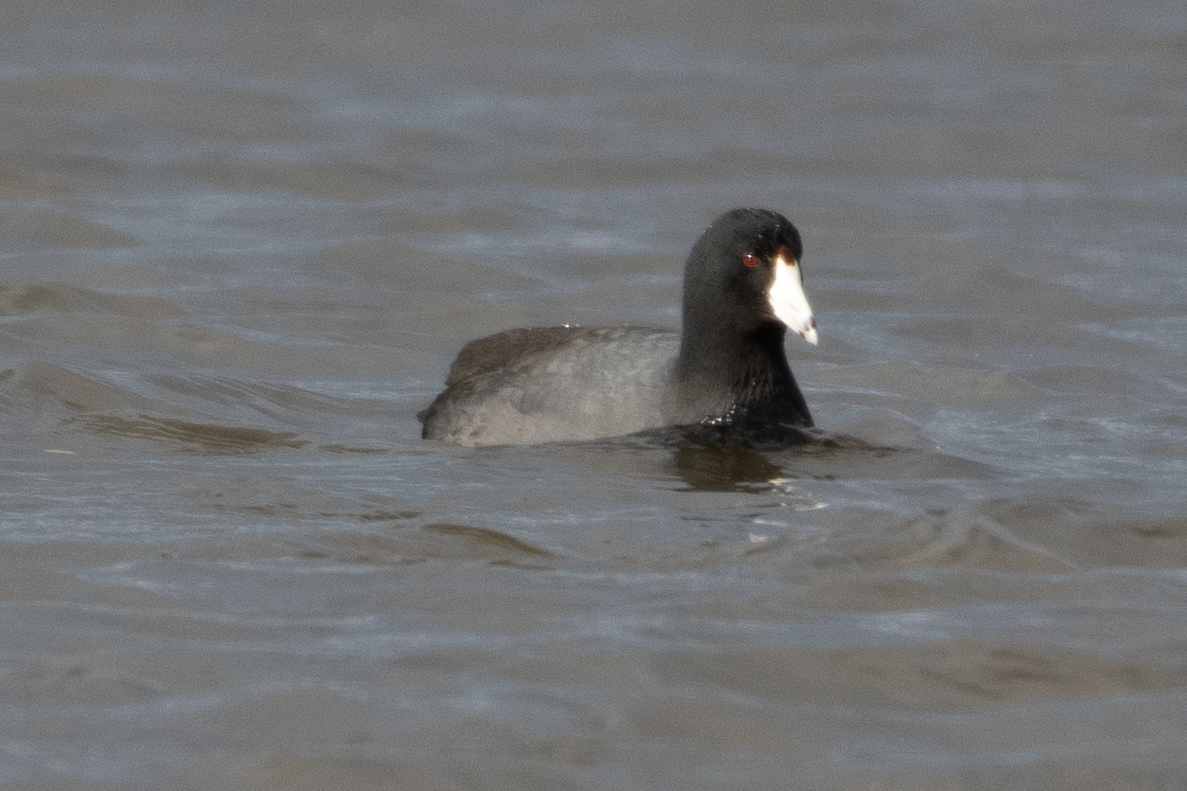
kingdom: Animalia
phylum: Chordata
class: Aves
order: Gruiformes
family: Rallidae
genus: Fulica
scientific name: Fulica americana
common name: American coot
